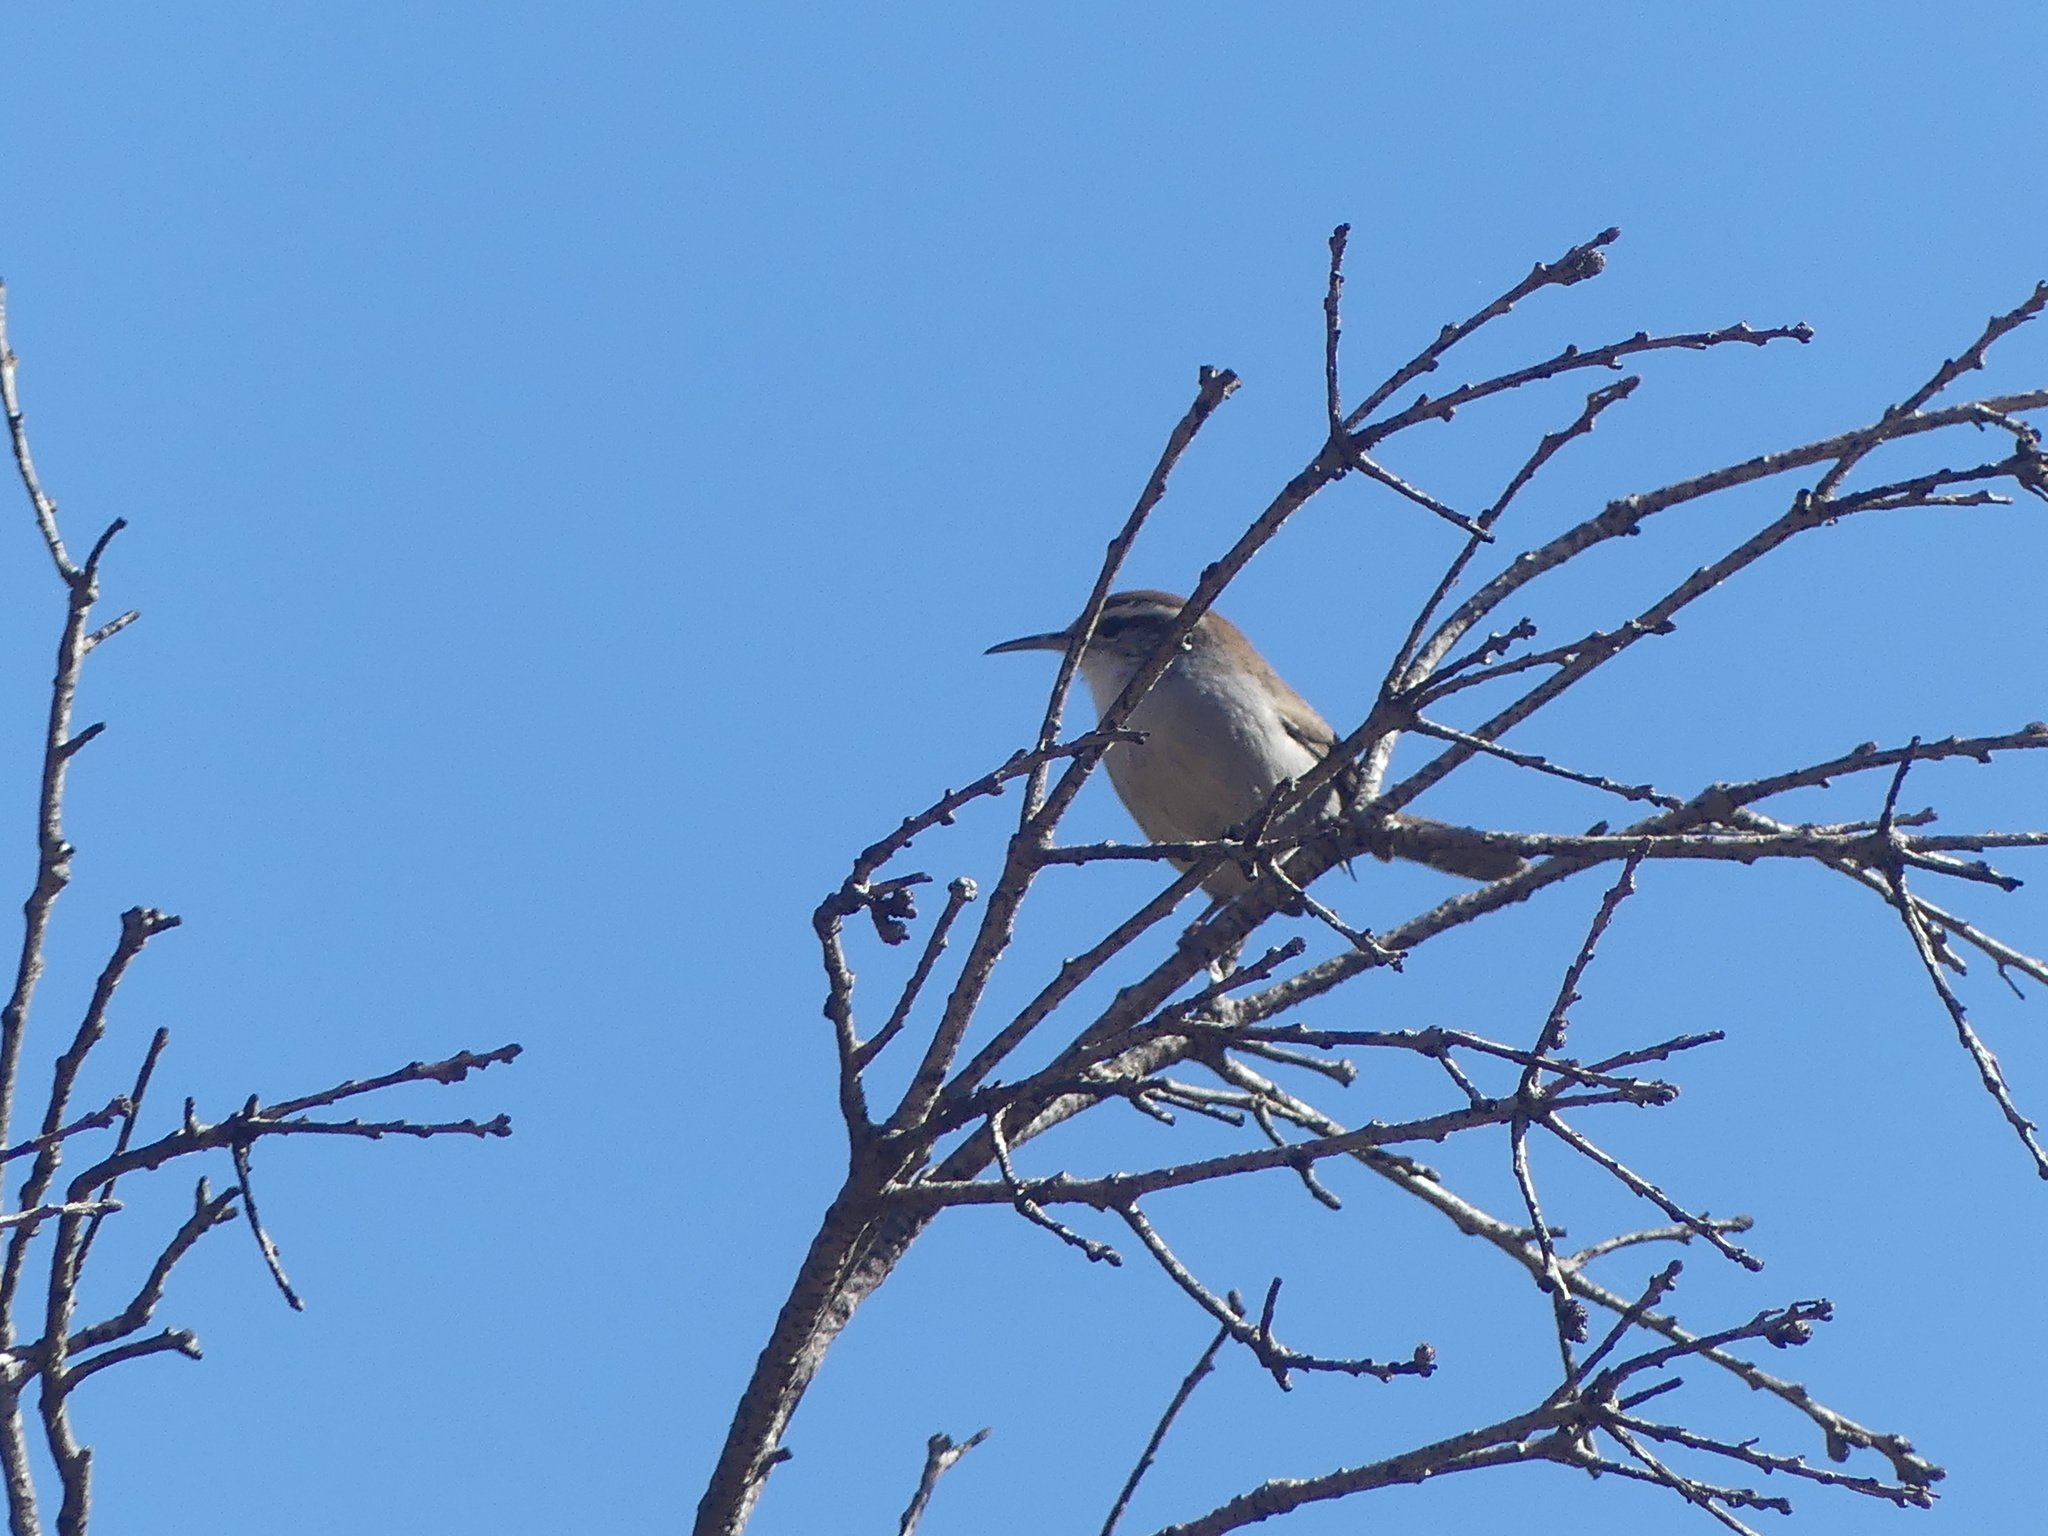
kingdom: Animalia
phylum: Chordata
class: Aves
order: Passeriformes
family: Troglodytidae
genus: Thryomanes
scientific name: Thryomanes bewickii
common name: Bewick's wren
